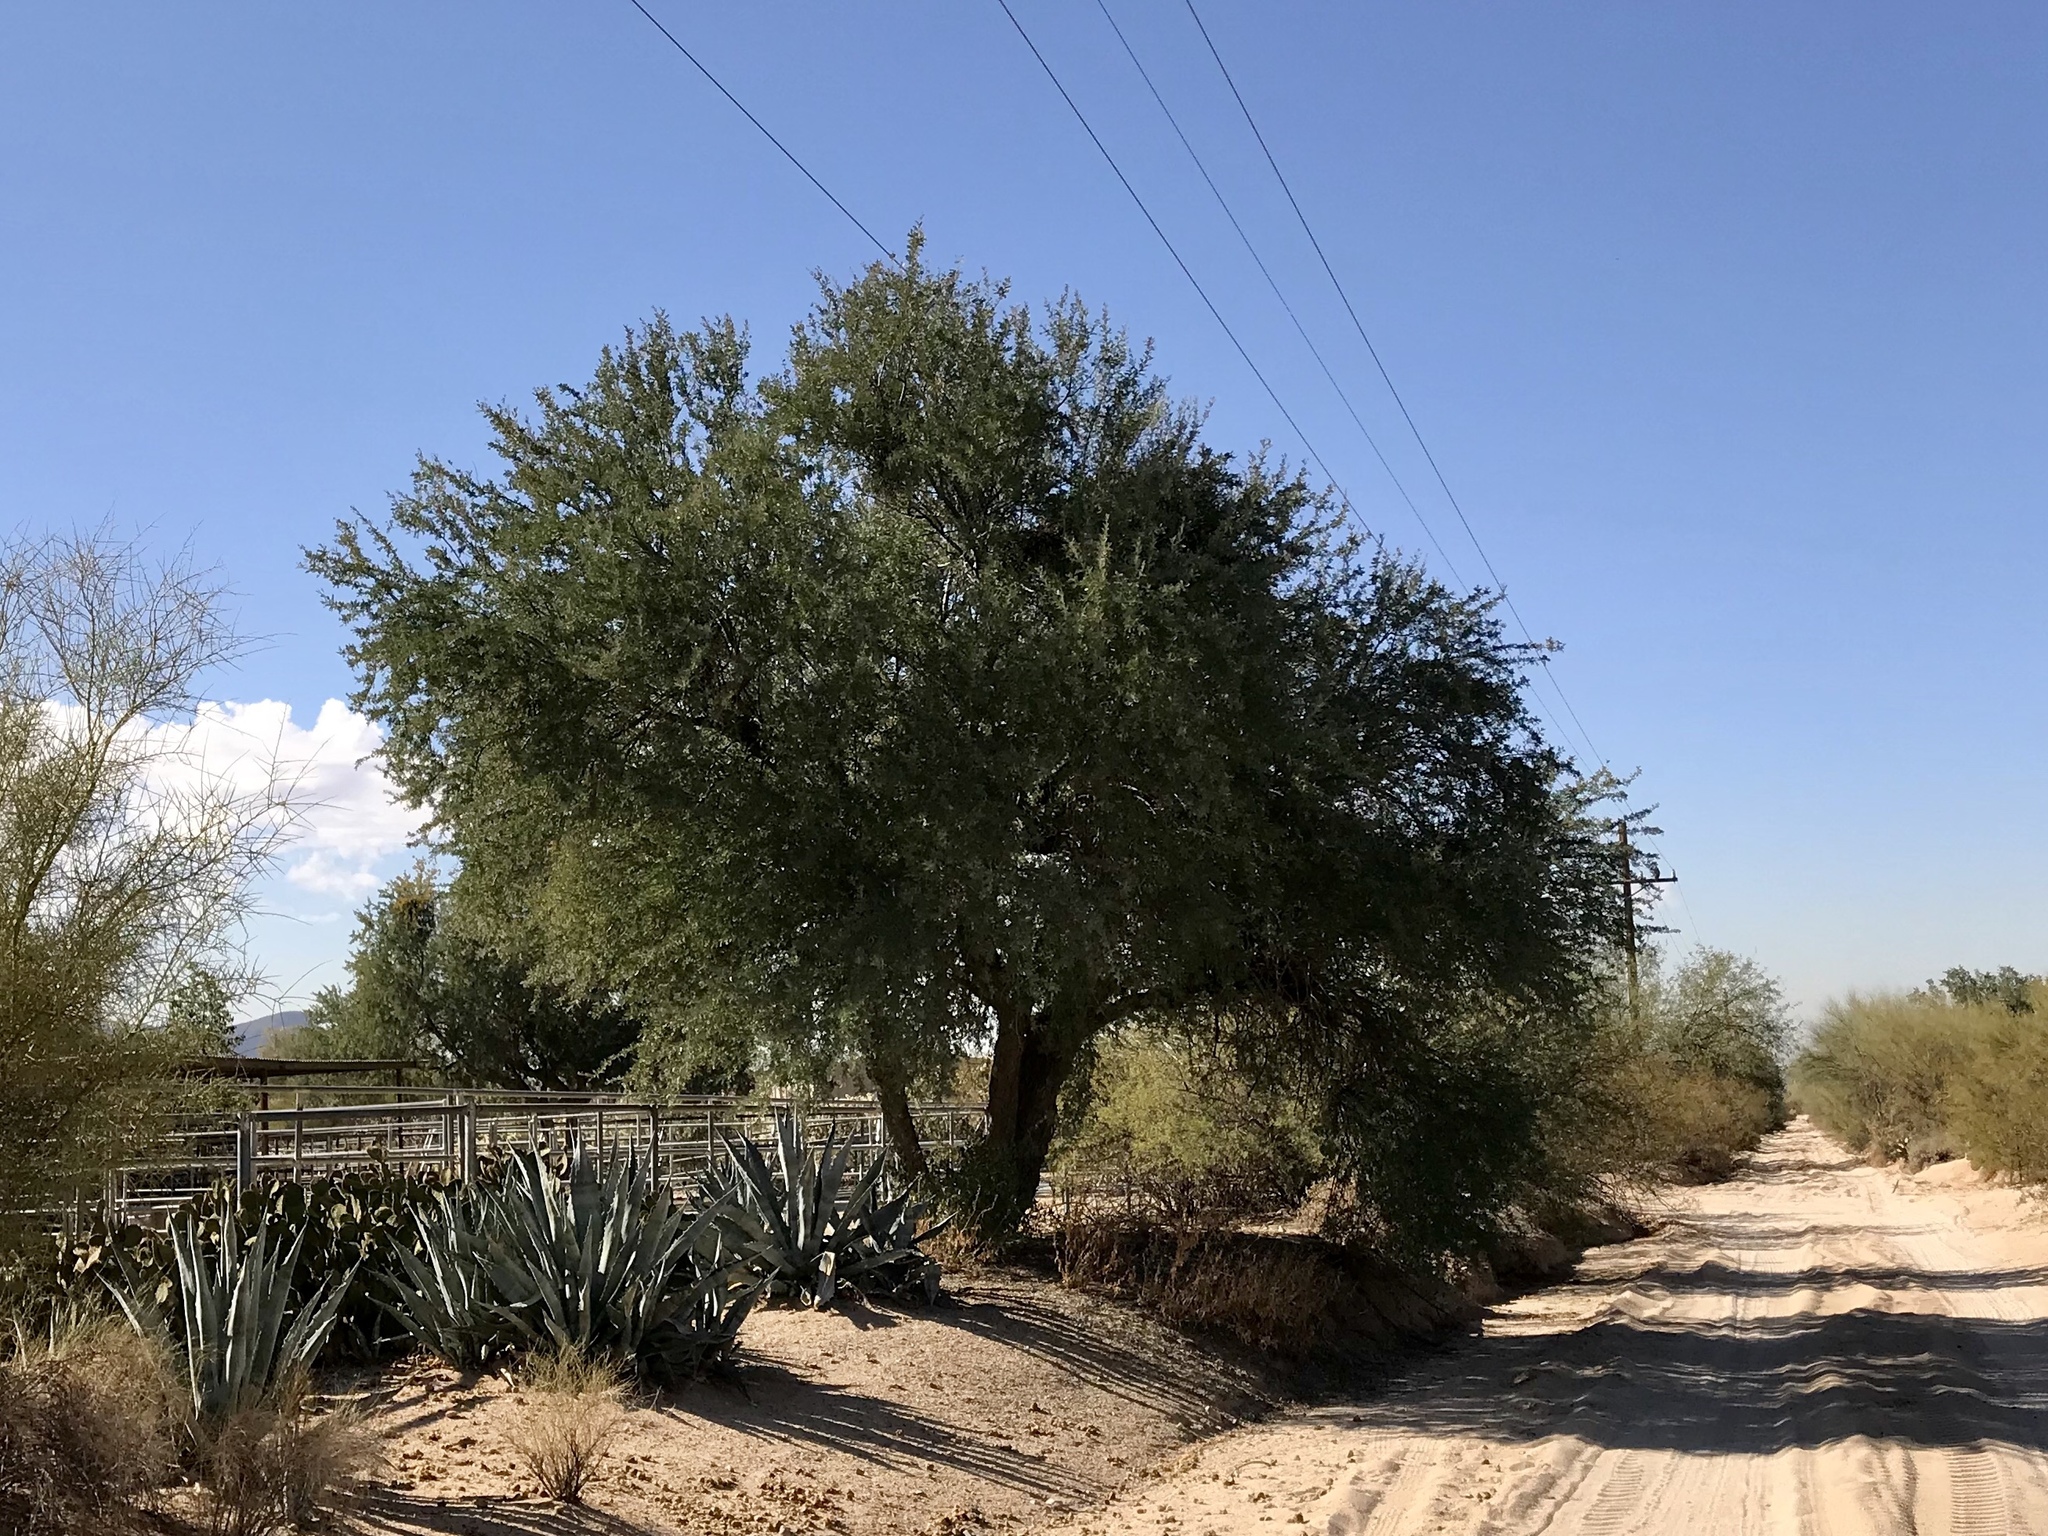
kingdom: Plantae
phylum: Tracheophyta
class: Magnoliopsida
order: Fabales
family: Fabaceae
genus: Olneya
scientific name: Olneya tesota
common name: Desert ironwood
